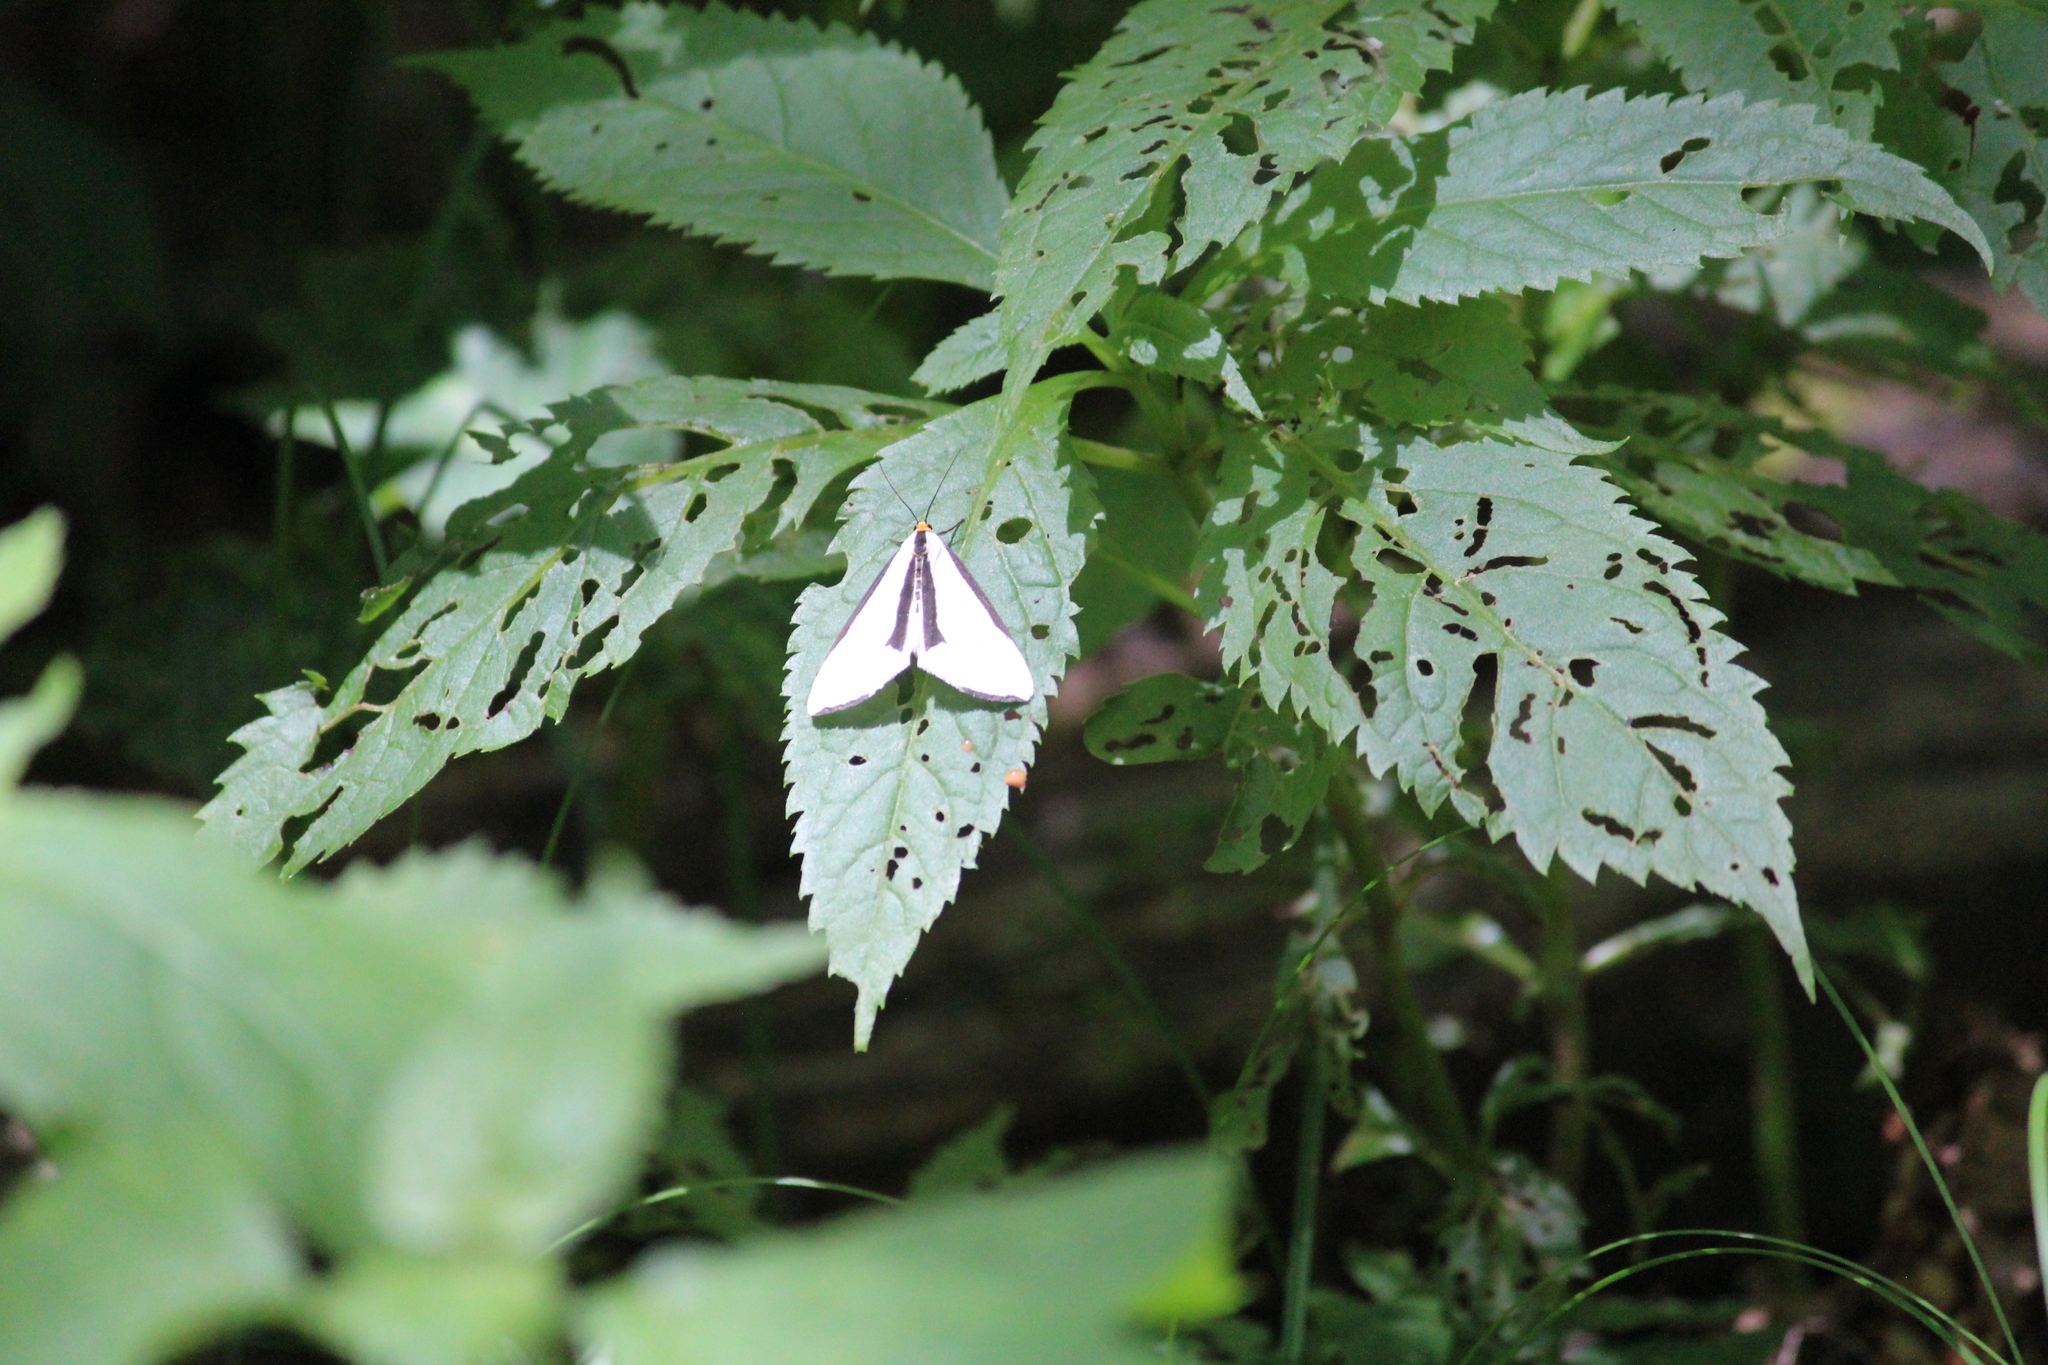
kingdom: Animalia
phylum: Arthropoda
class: Insecta
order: Lepidoptera
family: Erebidae
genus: Haploa
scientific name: Haploa lecontei
